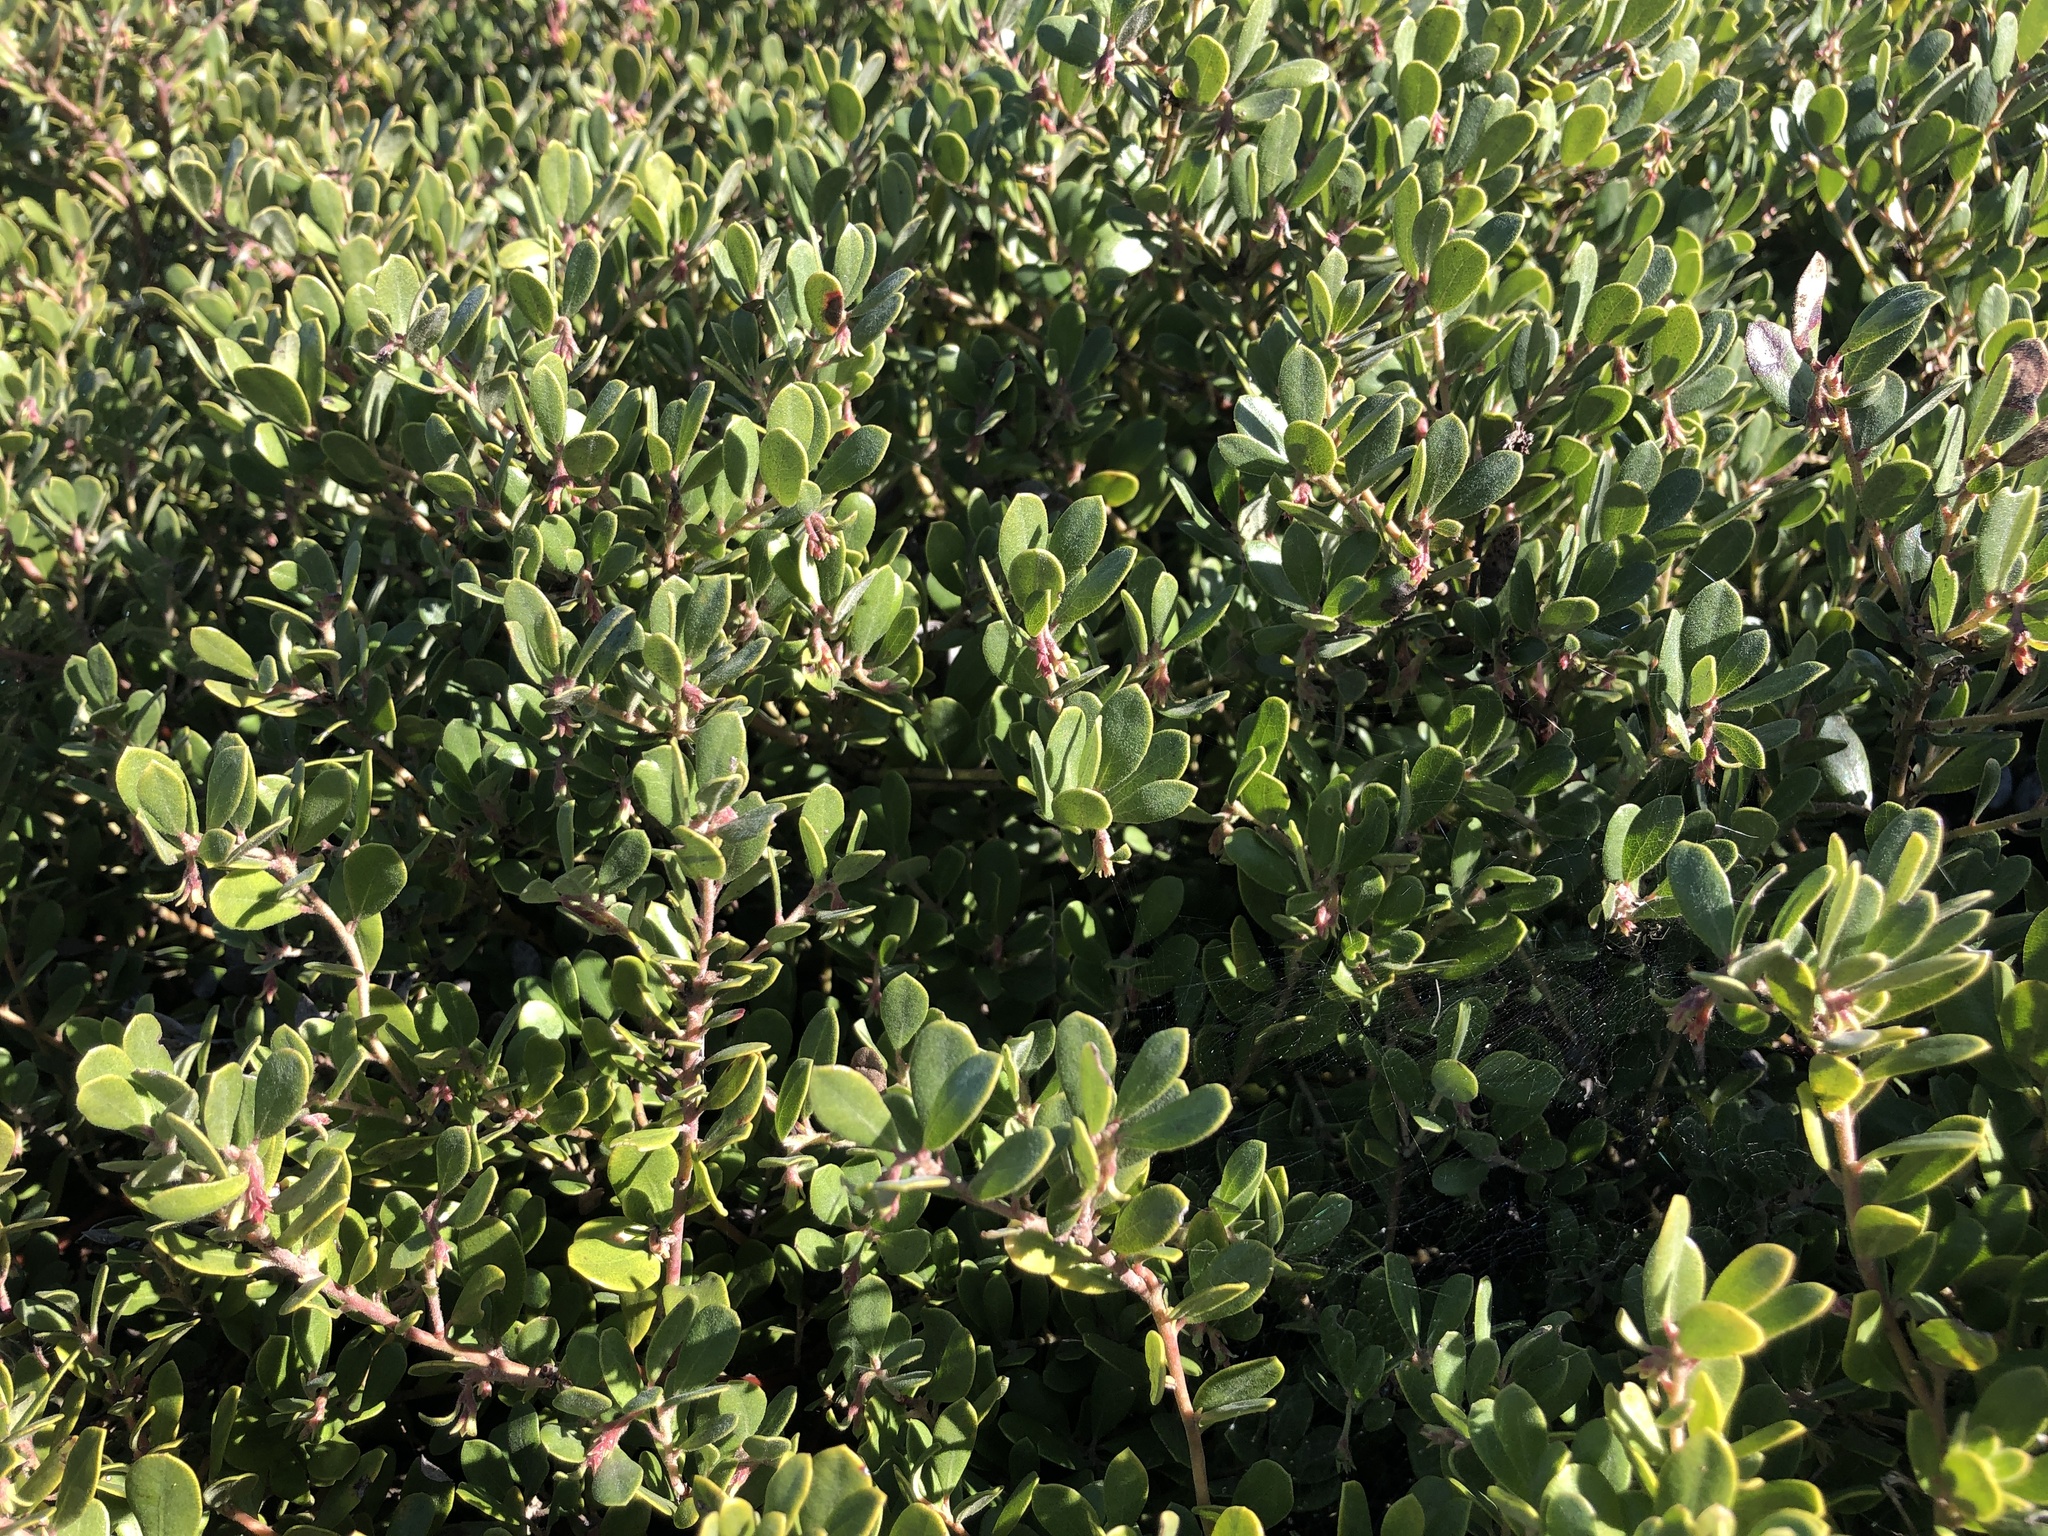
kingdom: Plantae
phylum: Tracheophyta
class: Magnoliopsida
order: Ericales
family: Ericaceae
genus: Arctostaphylos
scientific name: Arctostaphylos pumila
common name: Sandmat manzanita
